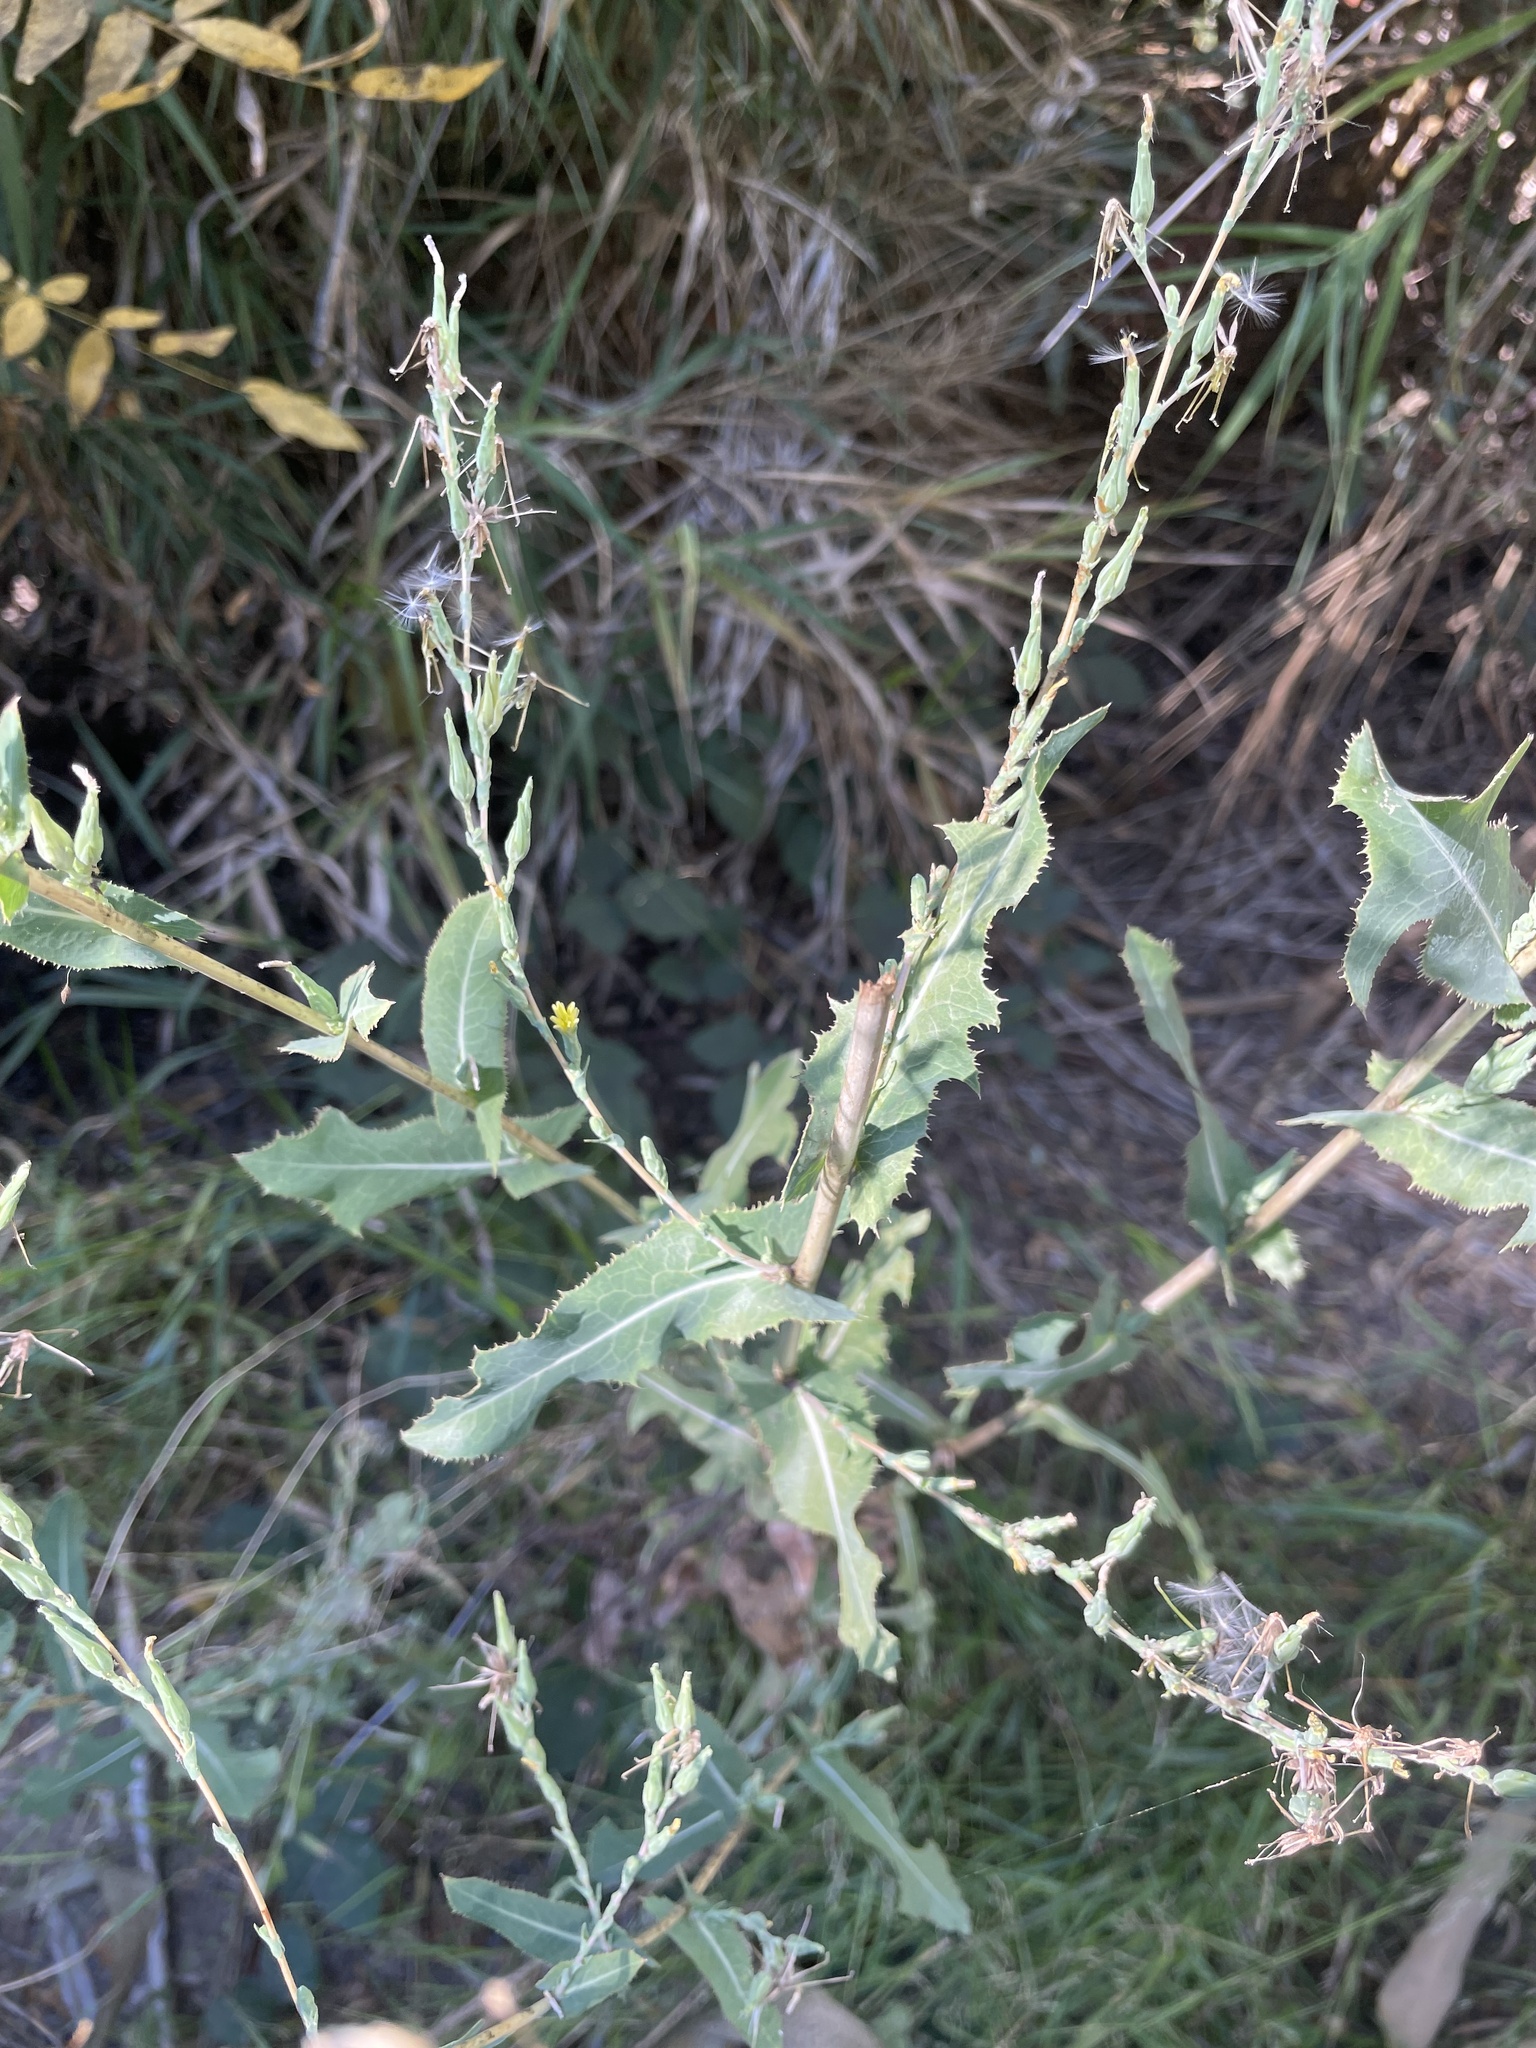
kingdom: Plantae
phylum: Tracheophyta
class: Magnoliopsida
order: Asterales
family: Asteraceae
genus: Lactuca
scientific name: Lactuca serriola
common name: Prickly lettuce
